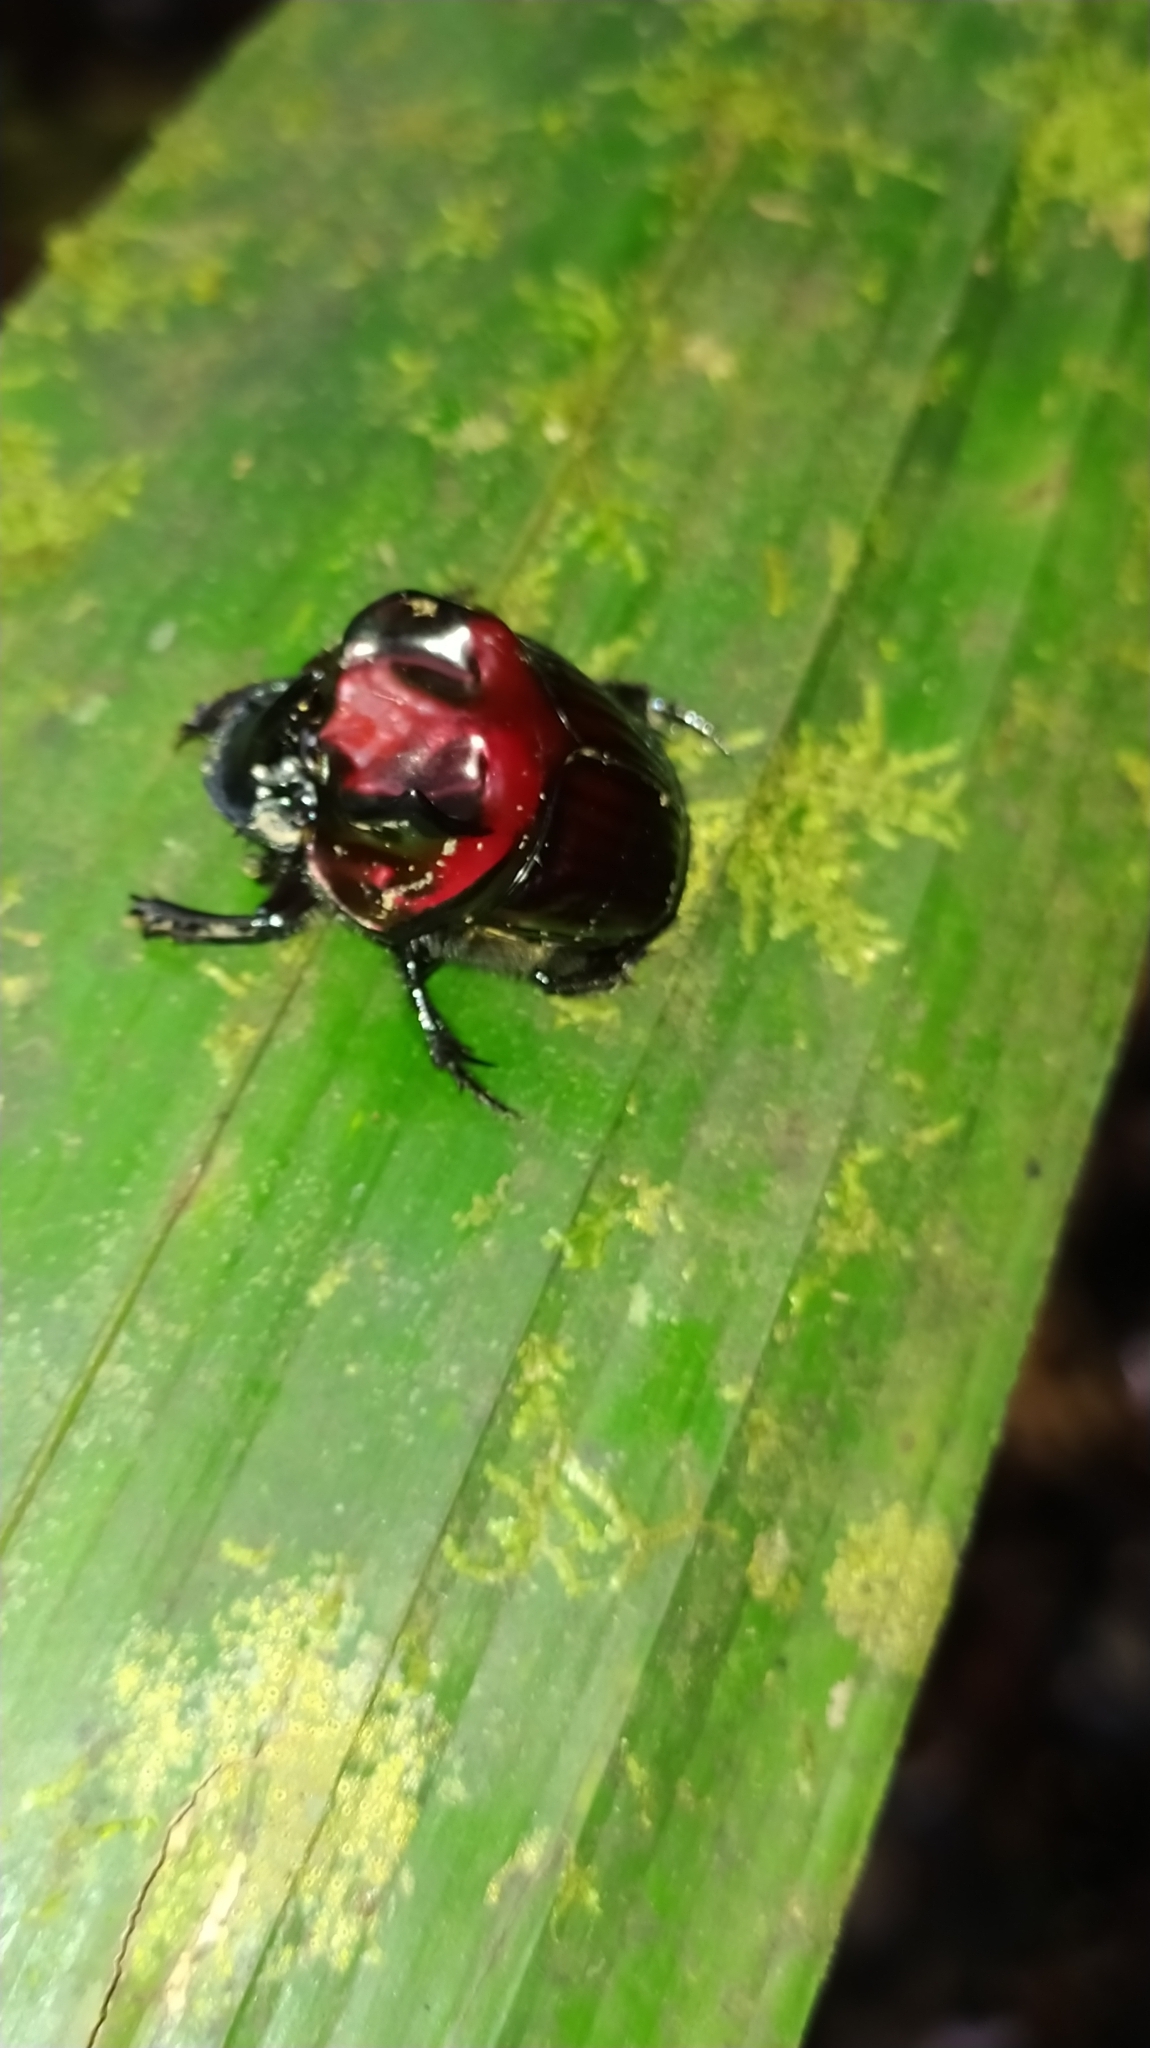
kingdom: Animalia
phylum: Arthropoda
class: Insecta
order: Coleoptera
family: Scarabaeidae
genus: Oxysternon
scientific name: Oxysternon festivum
